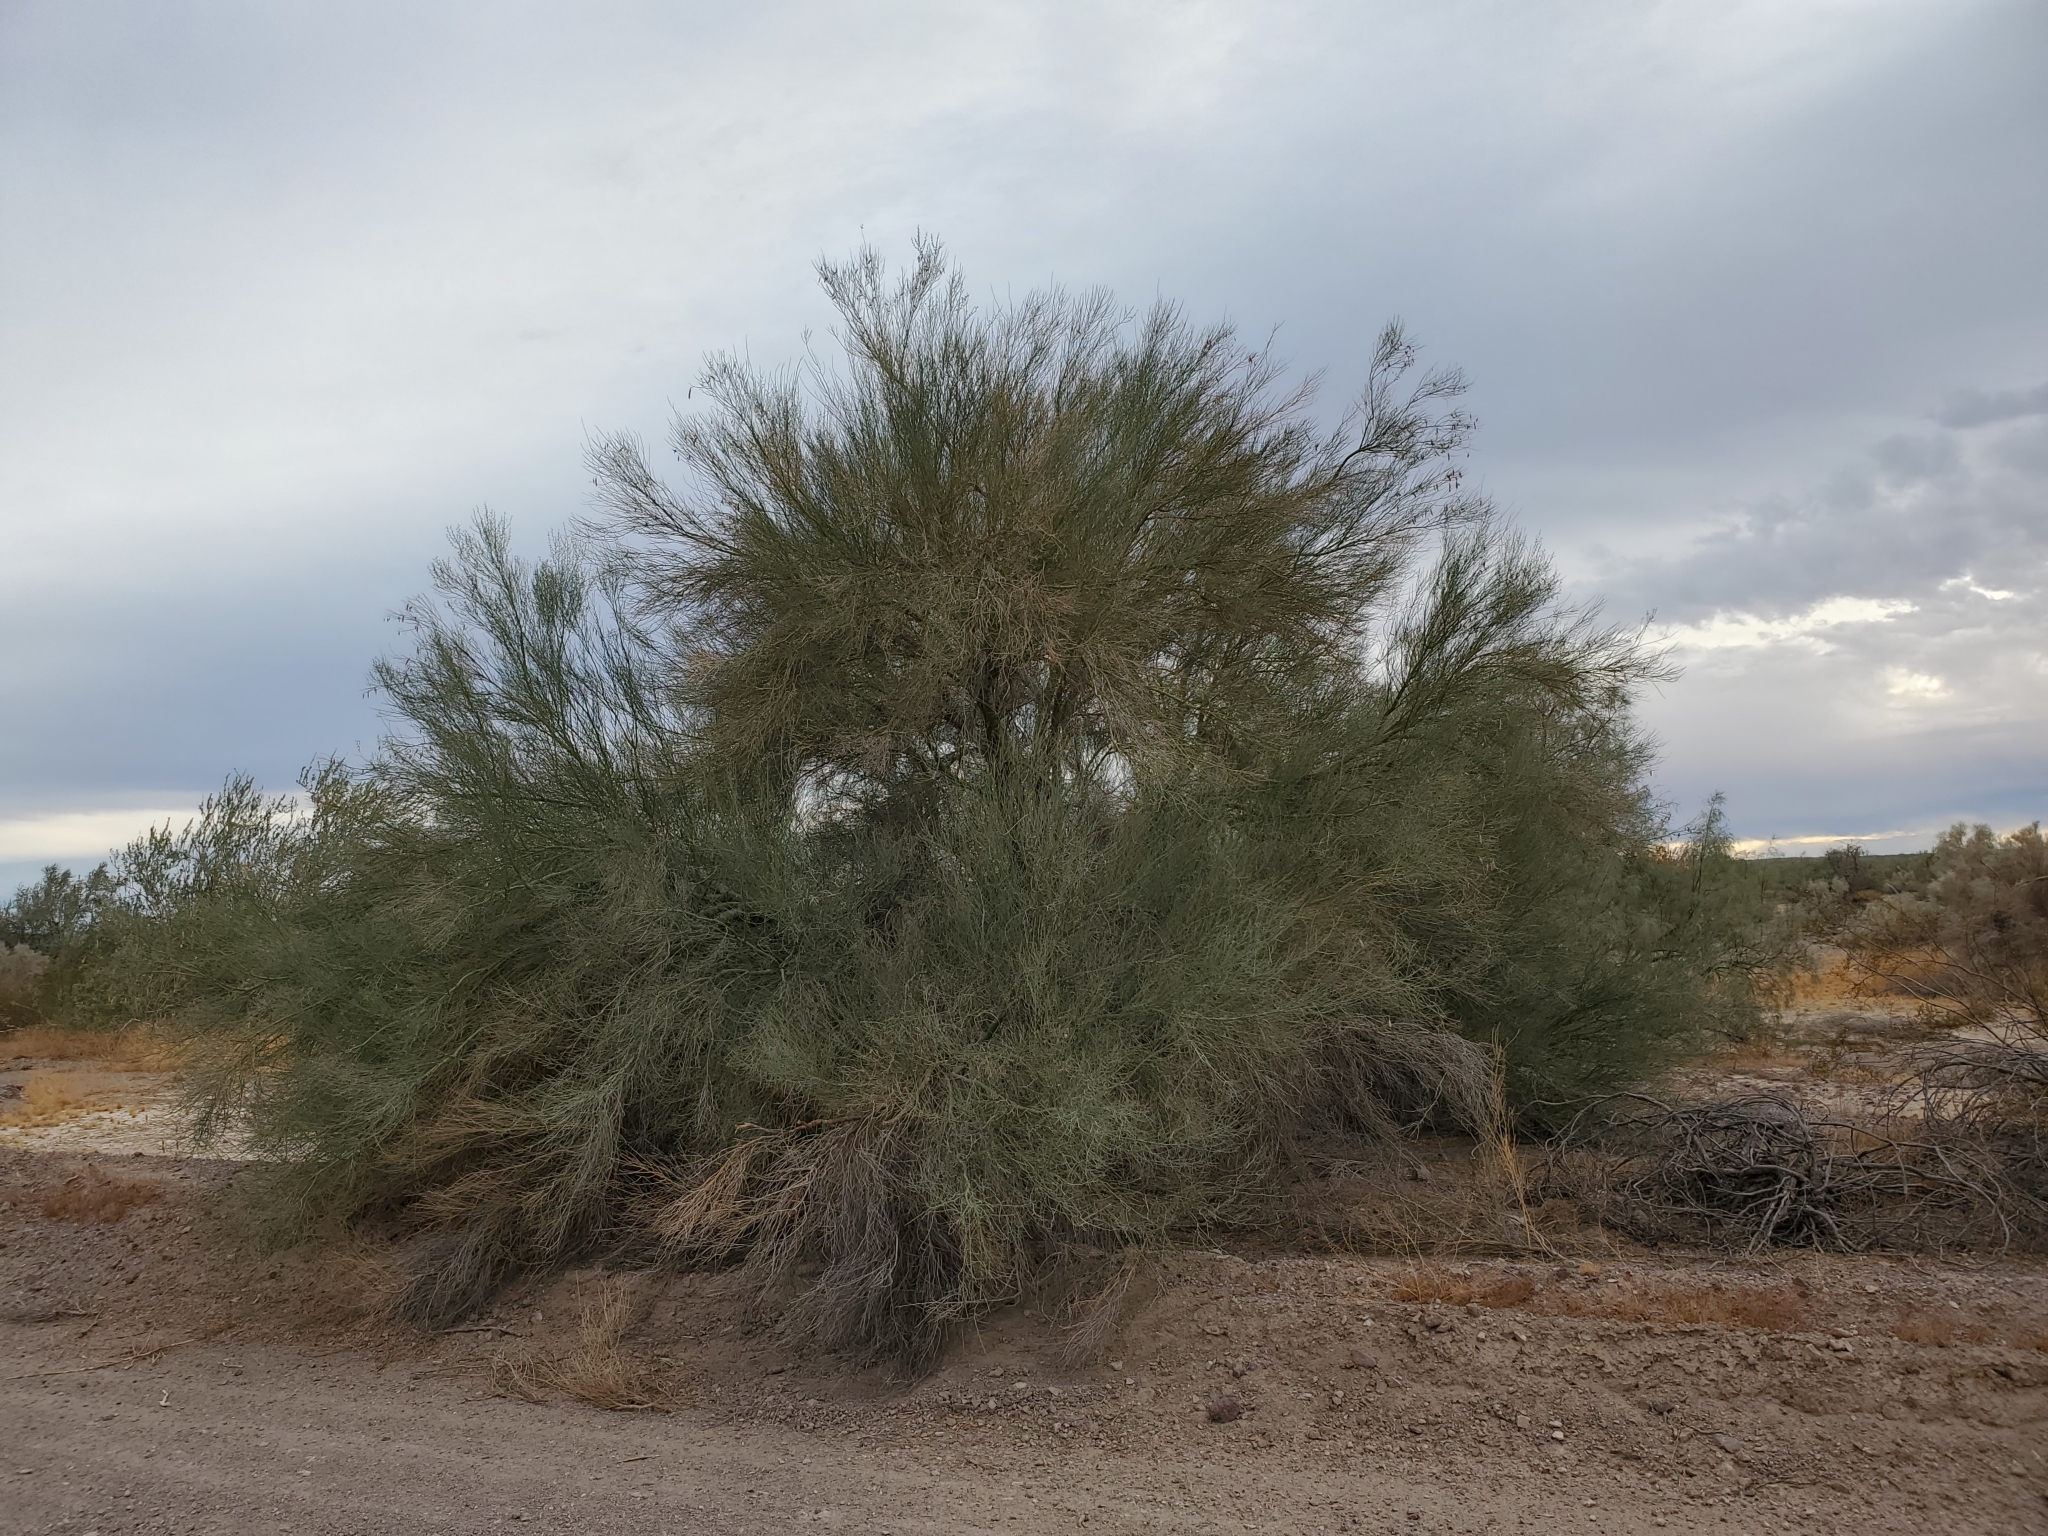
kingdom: Plantae
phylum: Tracheophyta
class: Magnoliopsida
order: Fabales
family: Fabaceae
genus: Parkinsonia
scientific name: Parkinsonia florida
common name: Blue paloverde
